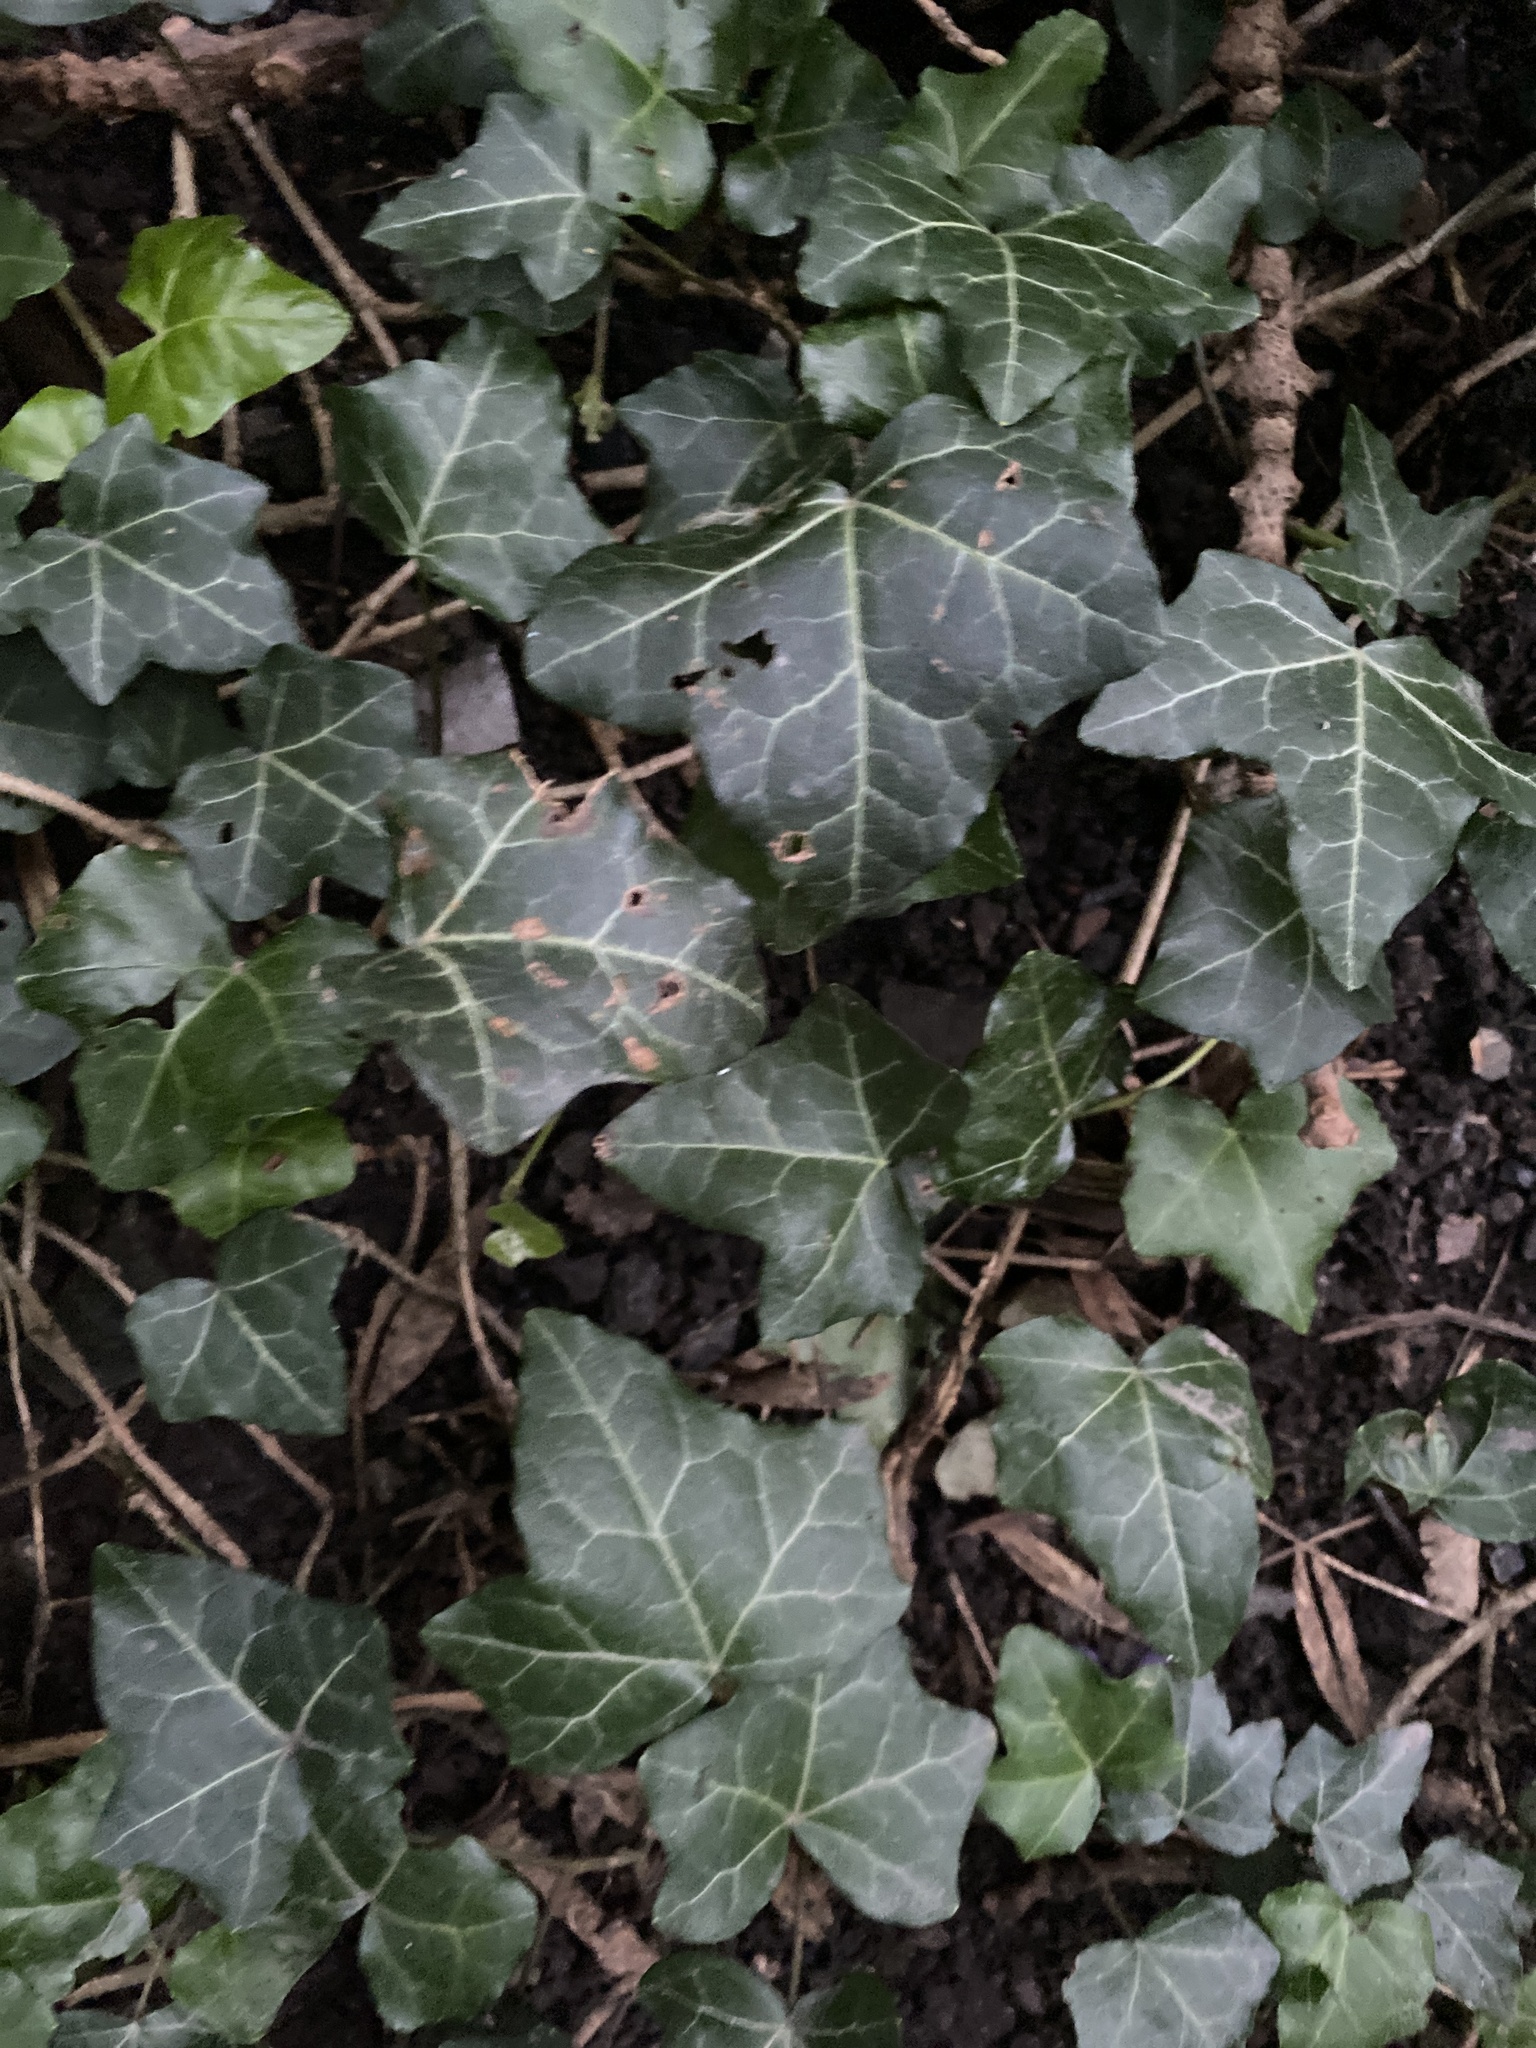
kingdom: Plantae
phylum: Tracheophyta
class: Magnoliopsida
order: Apiales
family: Araliaceae
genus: Hedera
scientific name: Hedera helix
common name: Ivy
